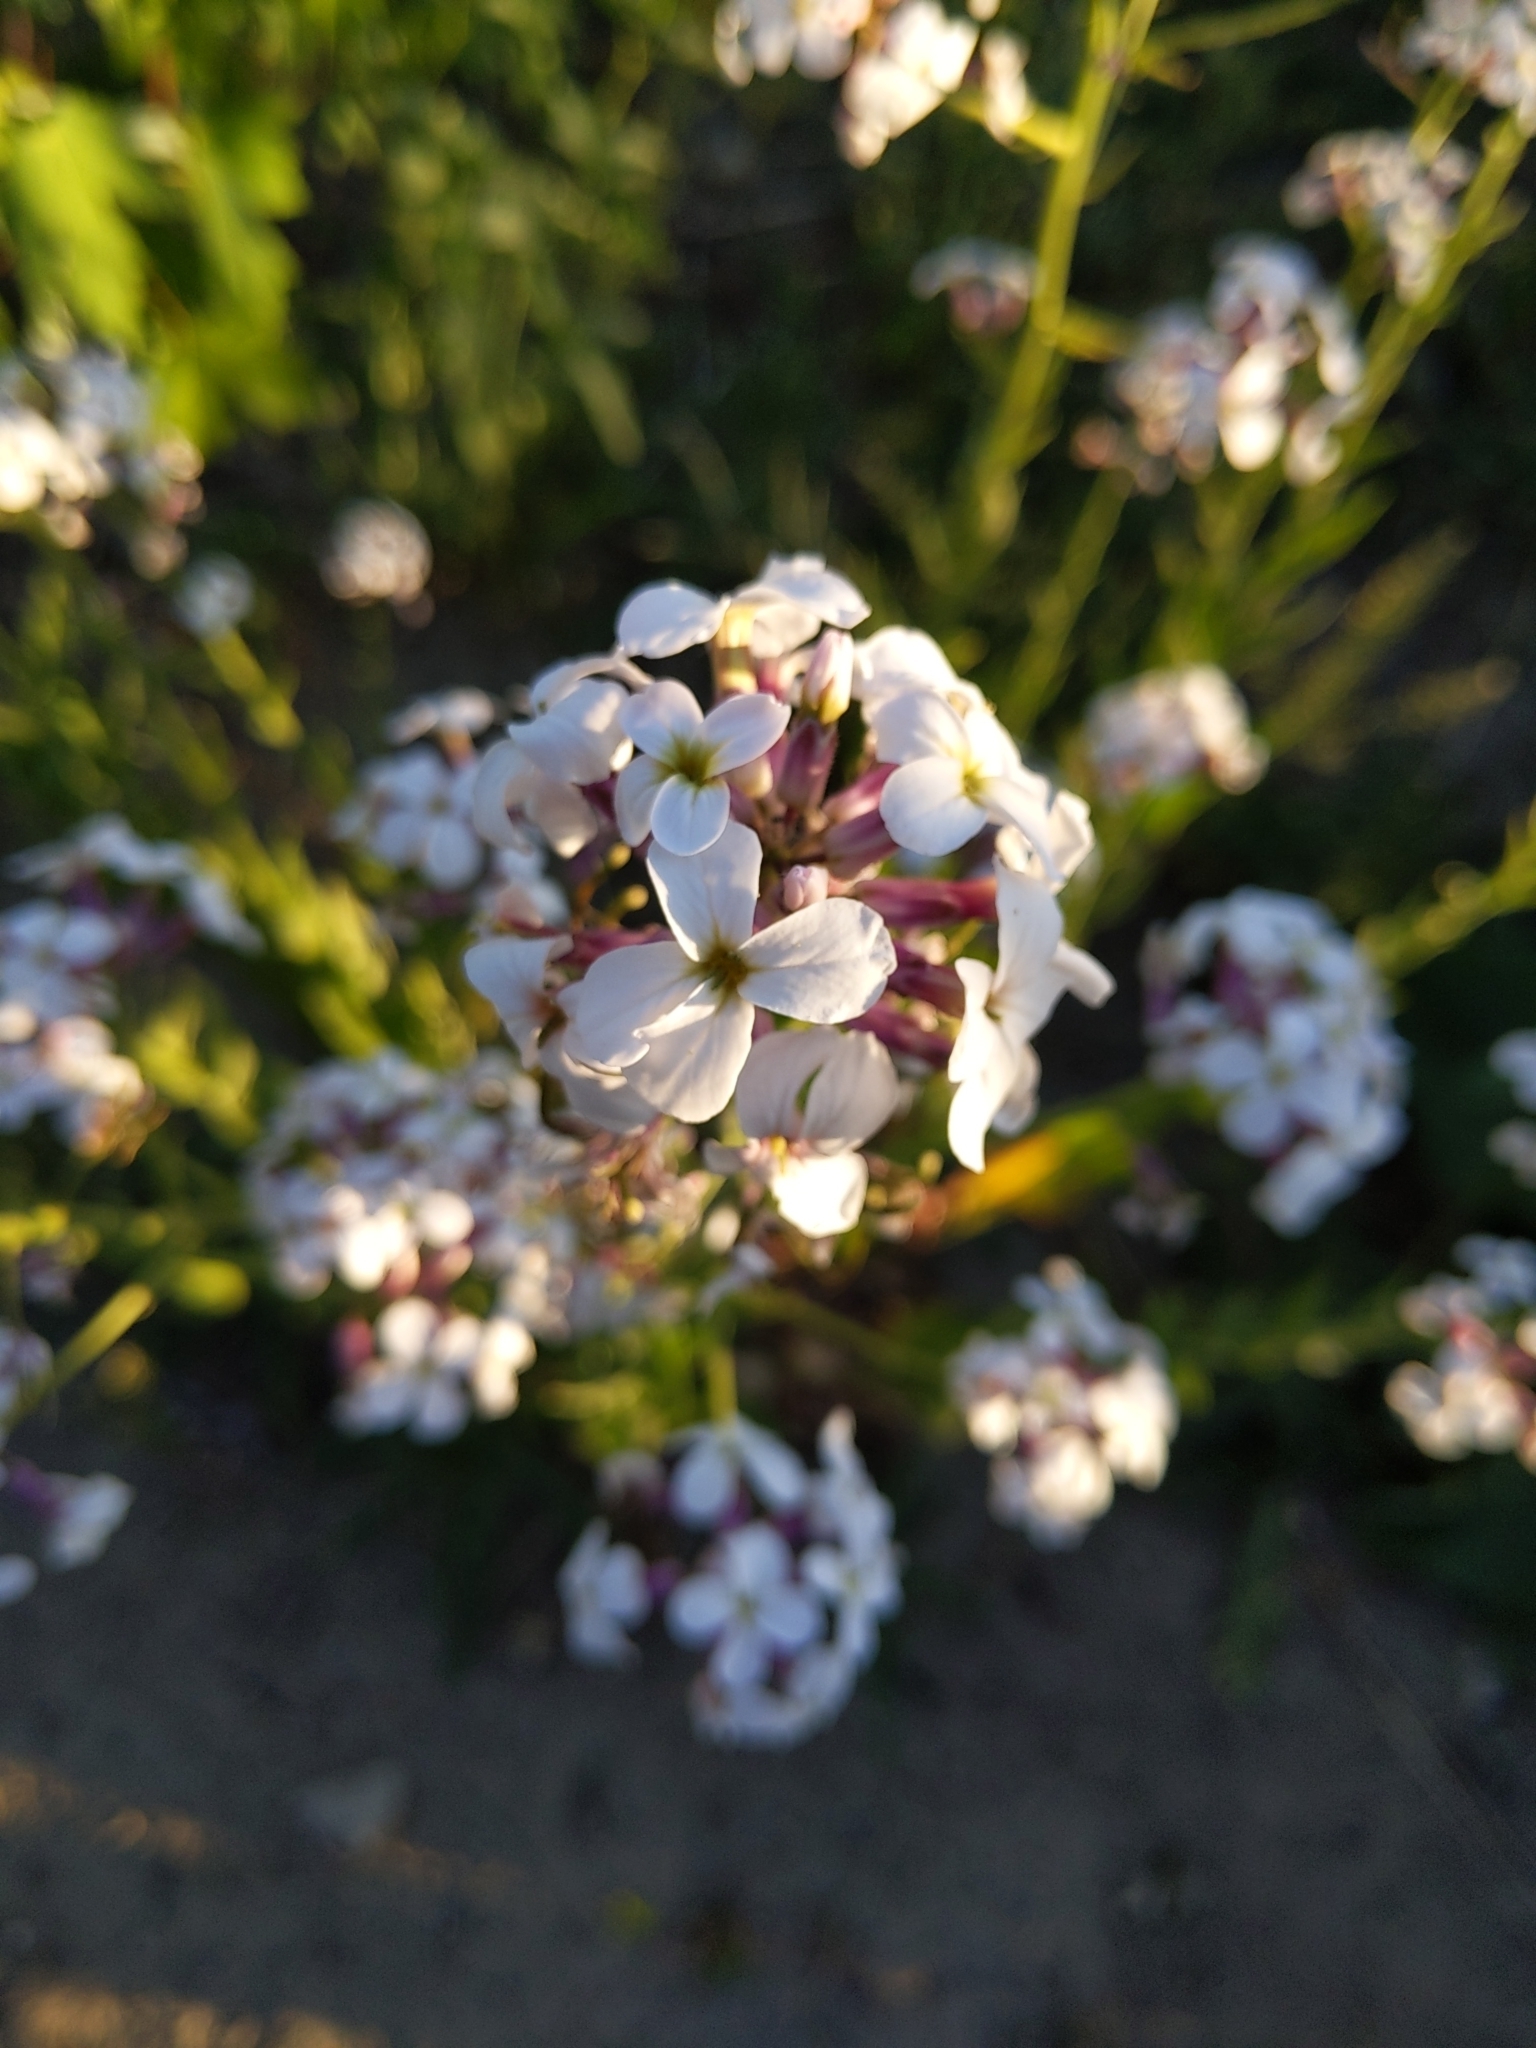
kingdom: Plantae
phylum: Tracheophyta
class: Magnoliopsida
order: Brassicales
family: Brassicaceae
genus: Hesperis
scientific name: Hesperis matronalis
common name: Dame's-violet
